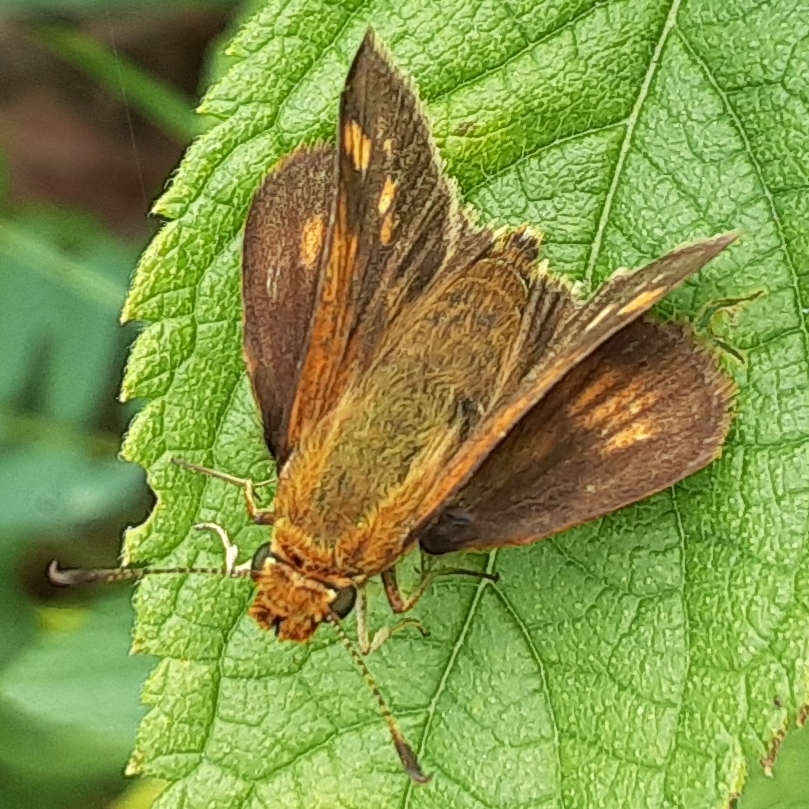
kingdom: Animalia
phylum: Arthropoda
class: Insecta
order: Lepidoptera
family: Hesperiidae
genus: Polites
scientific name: Polites coras
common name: Peck's skipper
